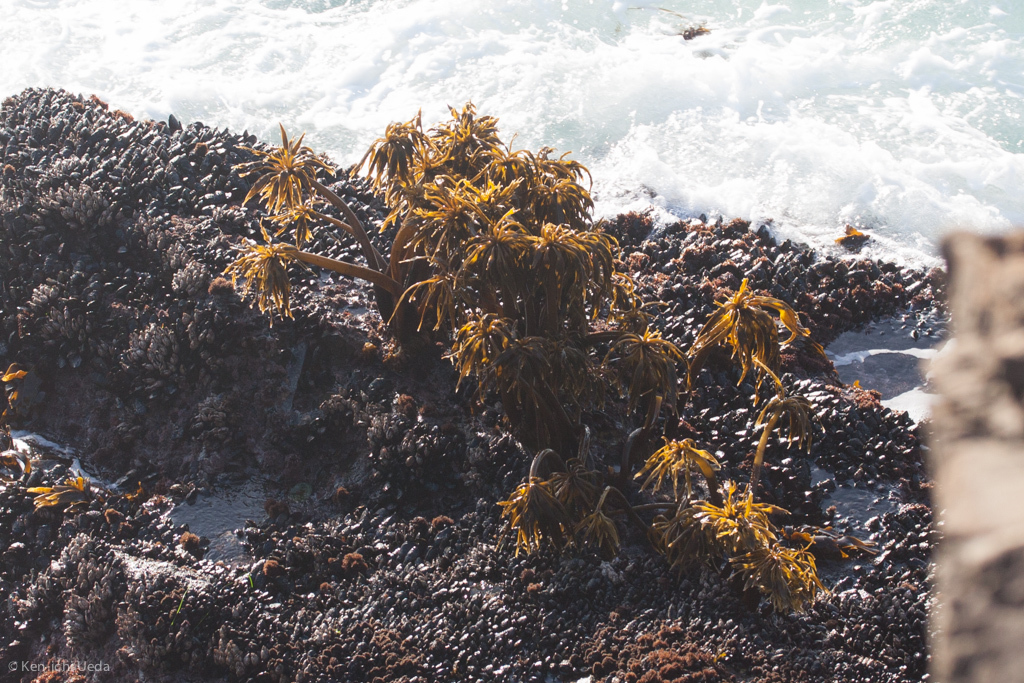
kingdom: Chromista
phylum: Ochrophyta
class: Phaeophyceae
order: Laminariales
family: Laminariaceae
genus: Postelsia
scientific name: Postelsia palmiformis
